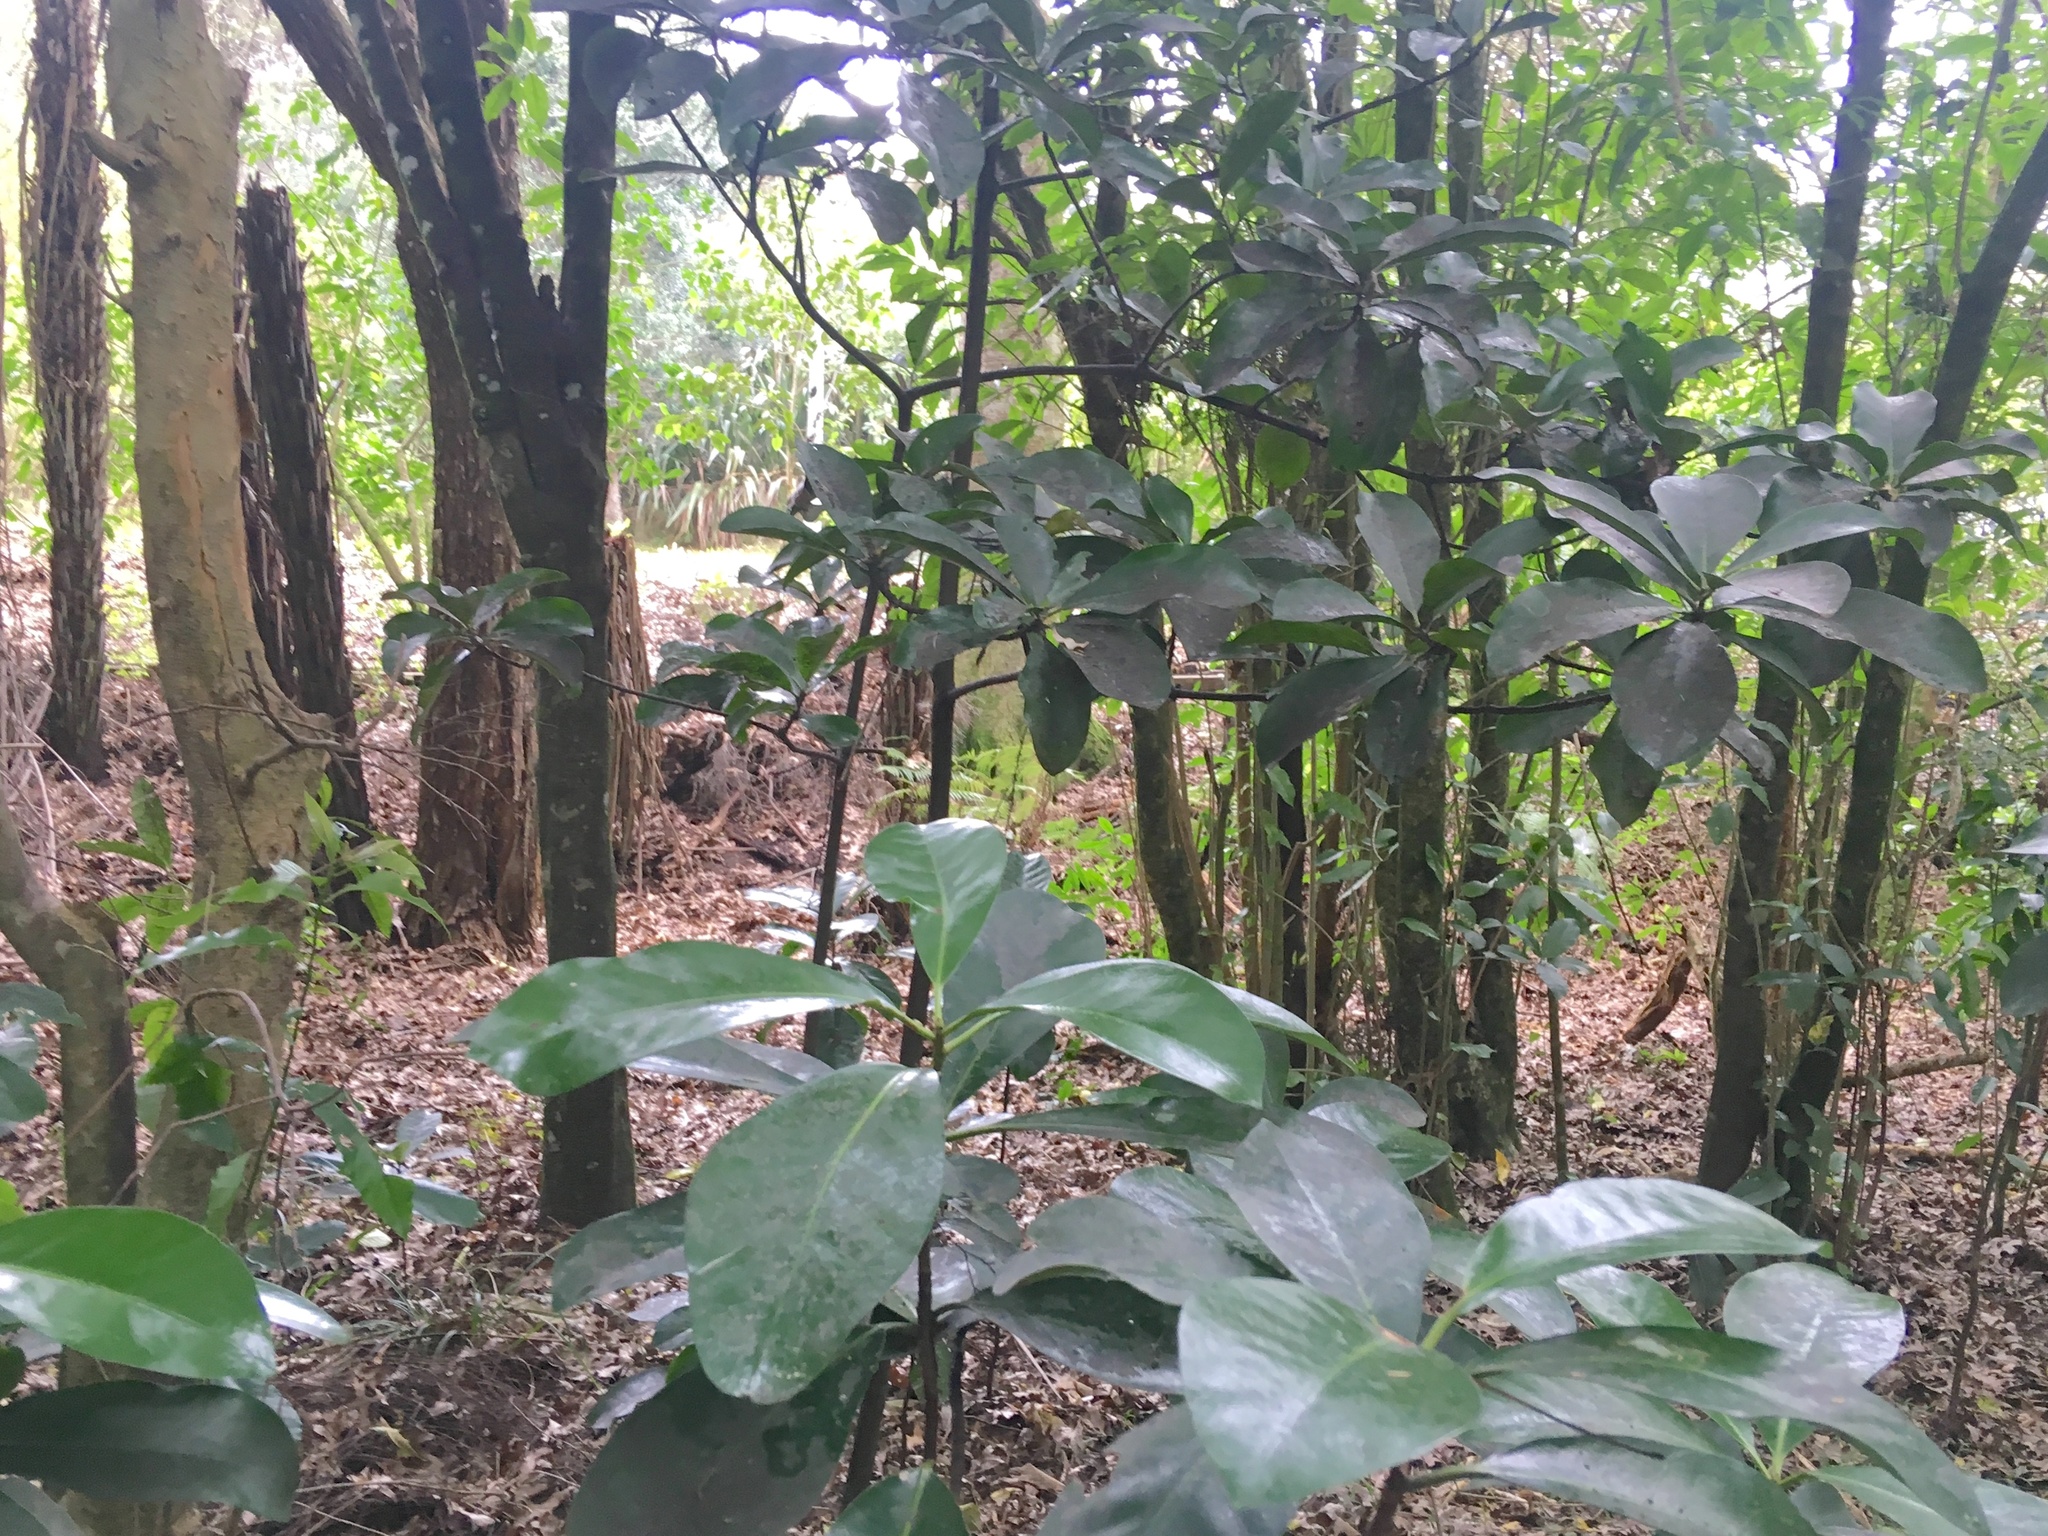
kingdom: Plantae
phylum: Tracheophyta
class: Magnoliopsida
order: Cucurbitales
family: Corynocarpaceae
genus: Corynocarpus
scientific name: Corynocarpus laevigatus
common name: New zealand laurel
